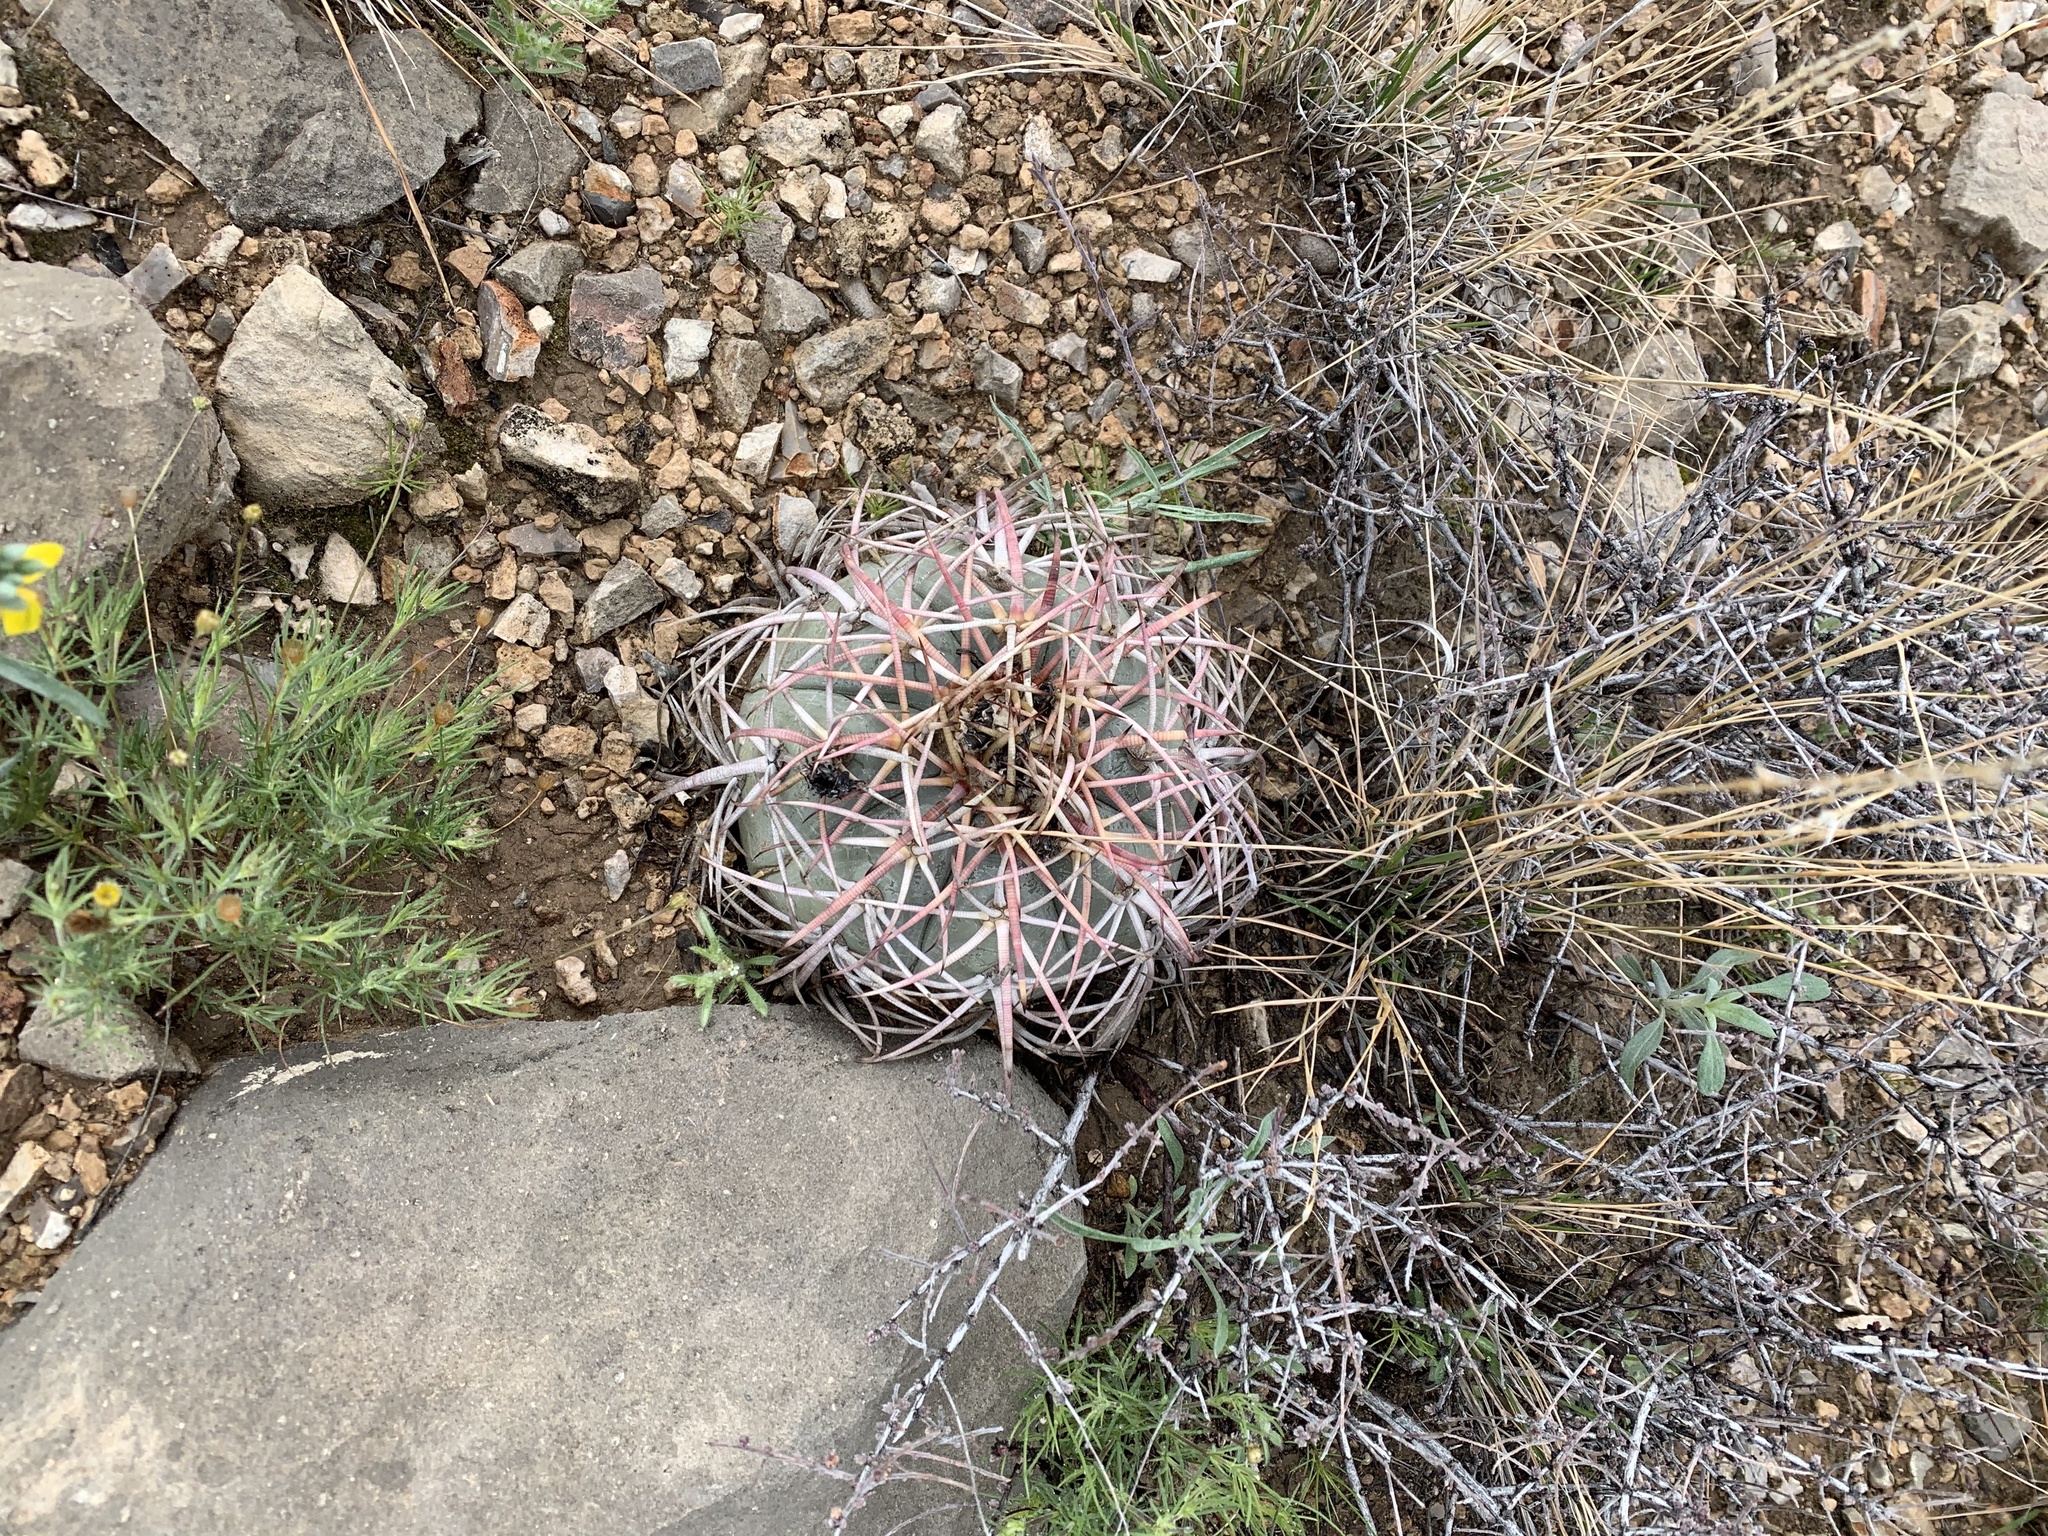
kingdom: Plantae
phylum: Tracheophyta
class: Magnoliopsida
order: Caryophyllales
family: Cactaceae
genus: Echinocactus
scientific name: Echinocactus horizonthalonius
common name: Devilshead
